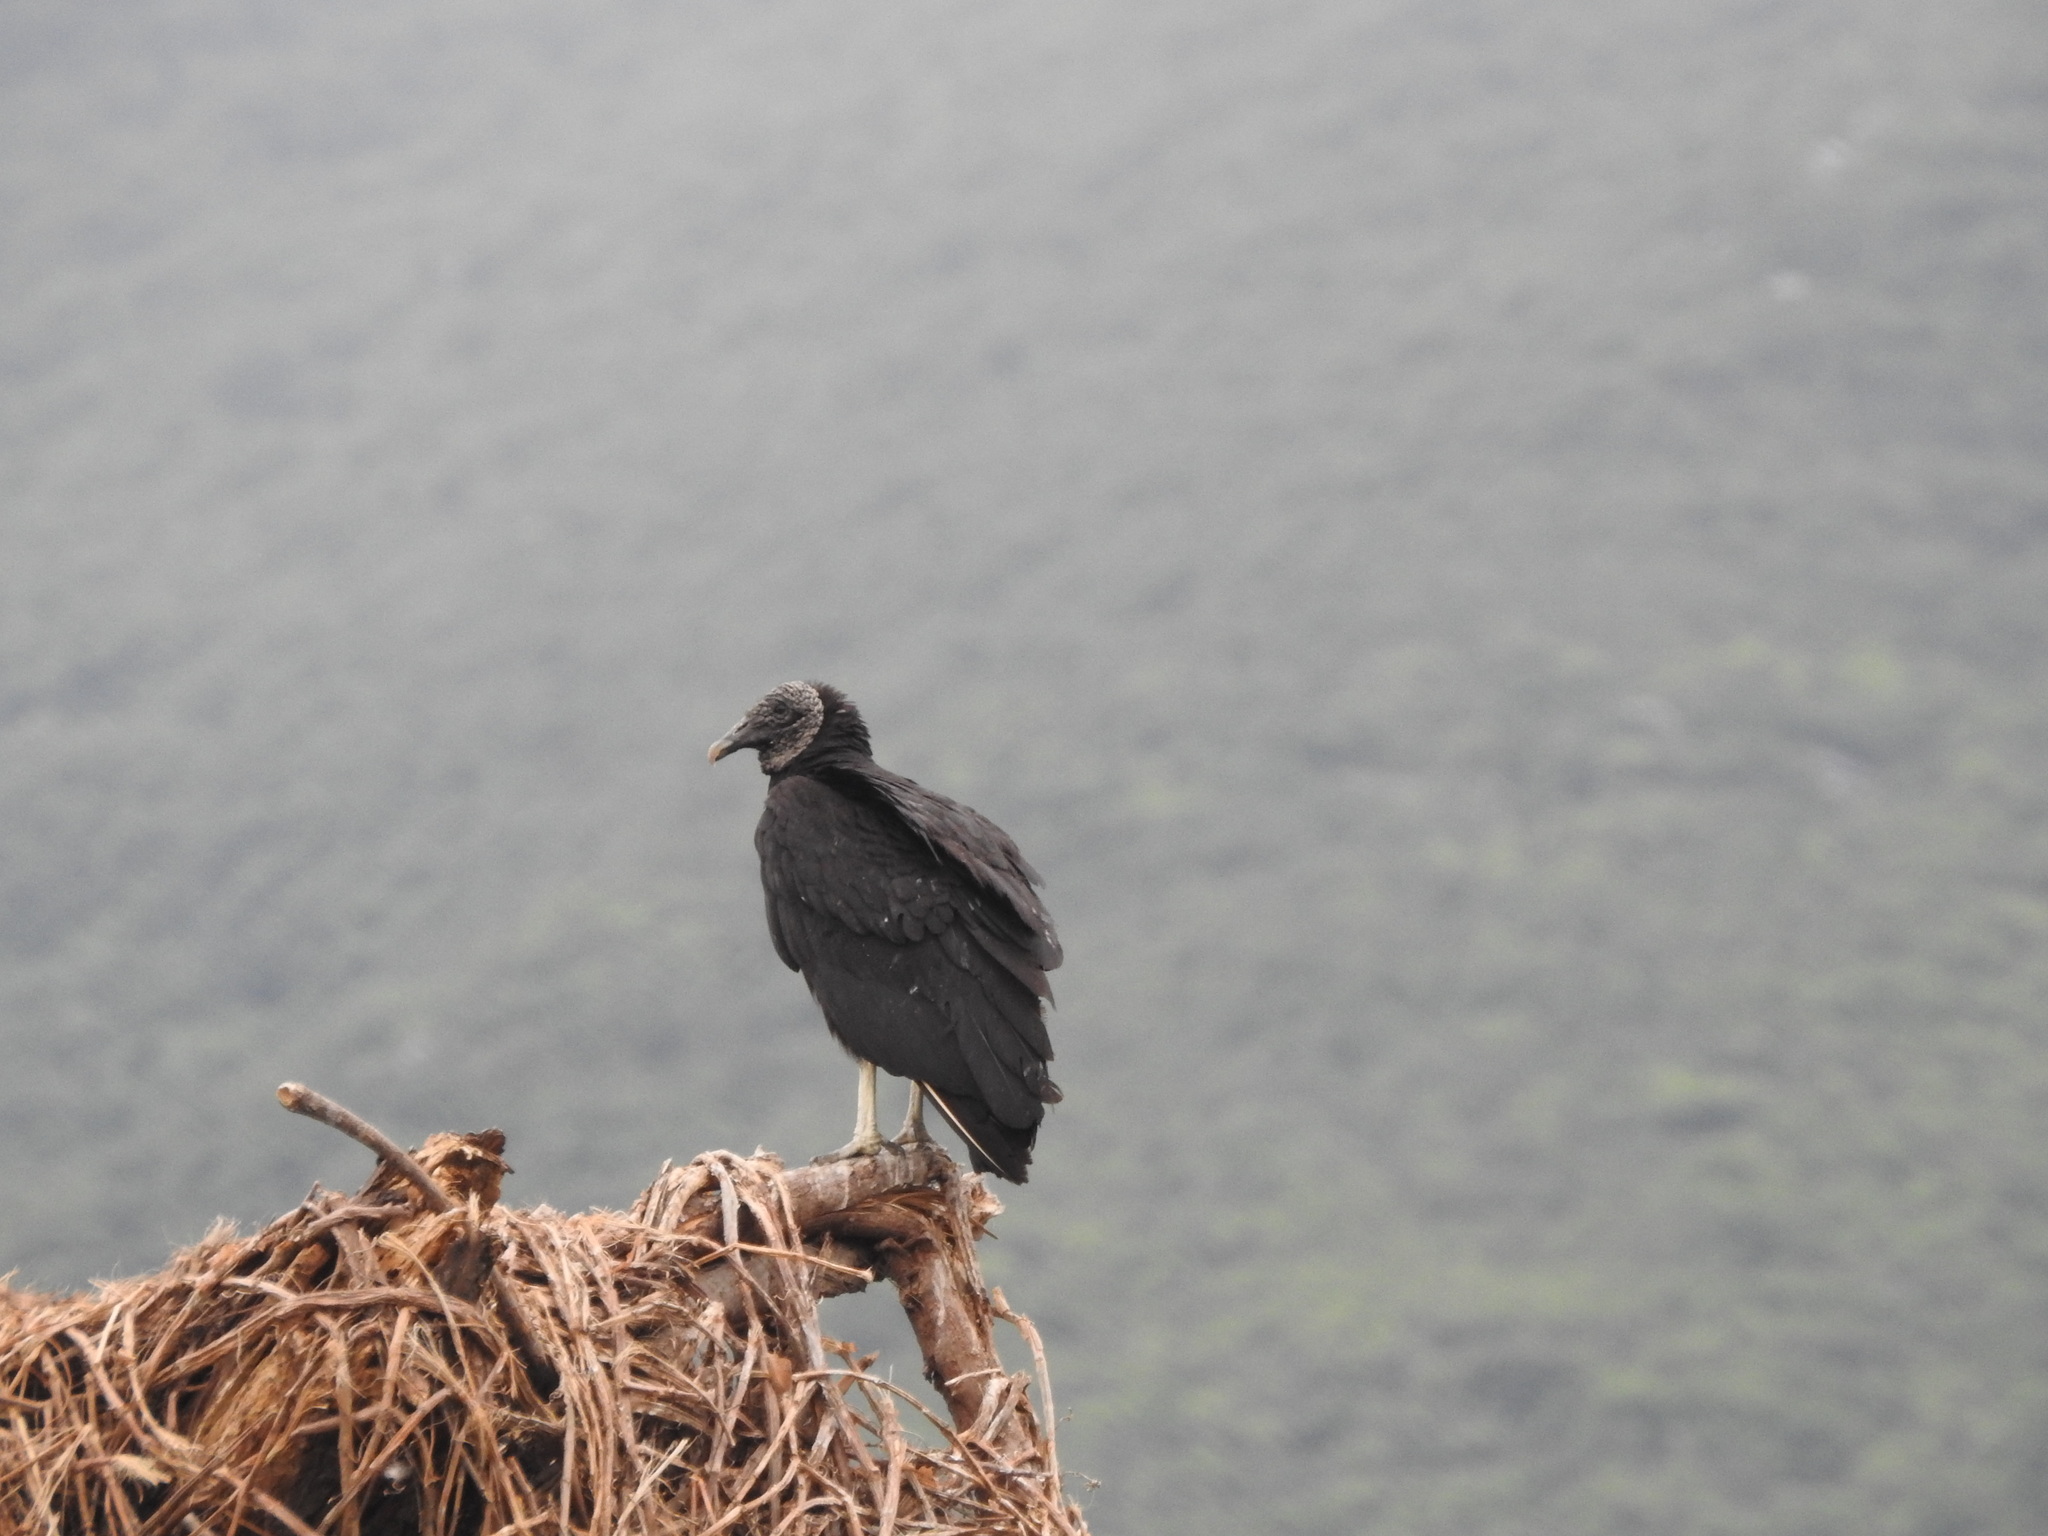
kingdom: Animalia
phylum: Chordata
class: Aves
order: Accipitriformes
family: Cathartidae
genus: Coragyps
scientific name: Coragyps atratus
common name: Black vulture
